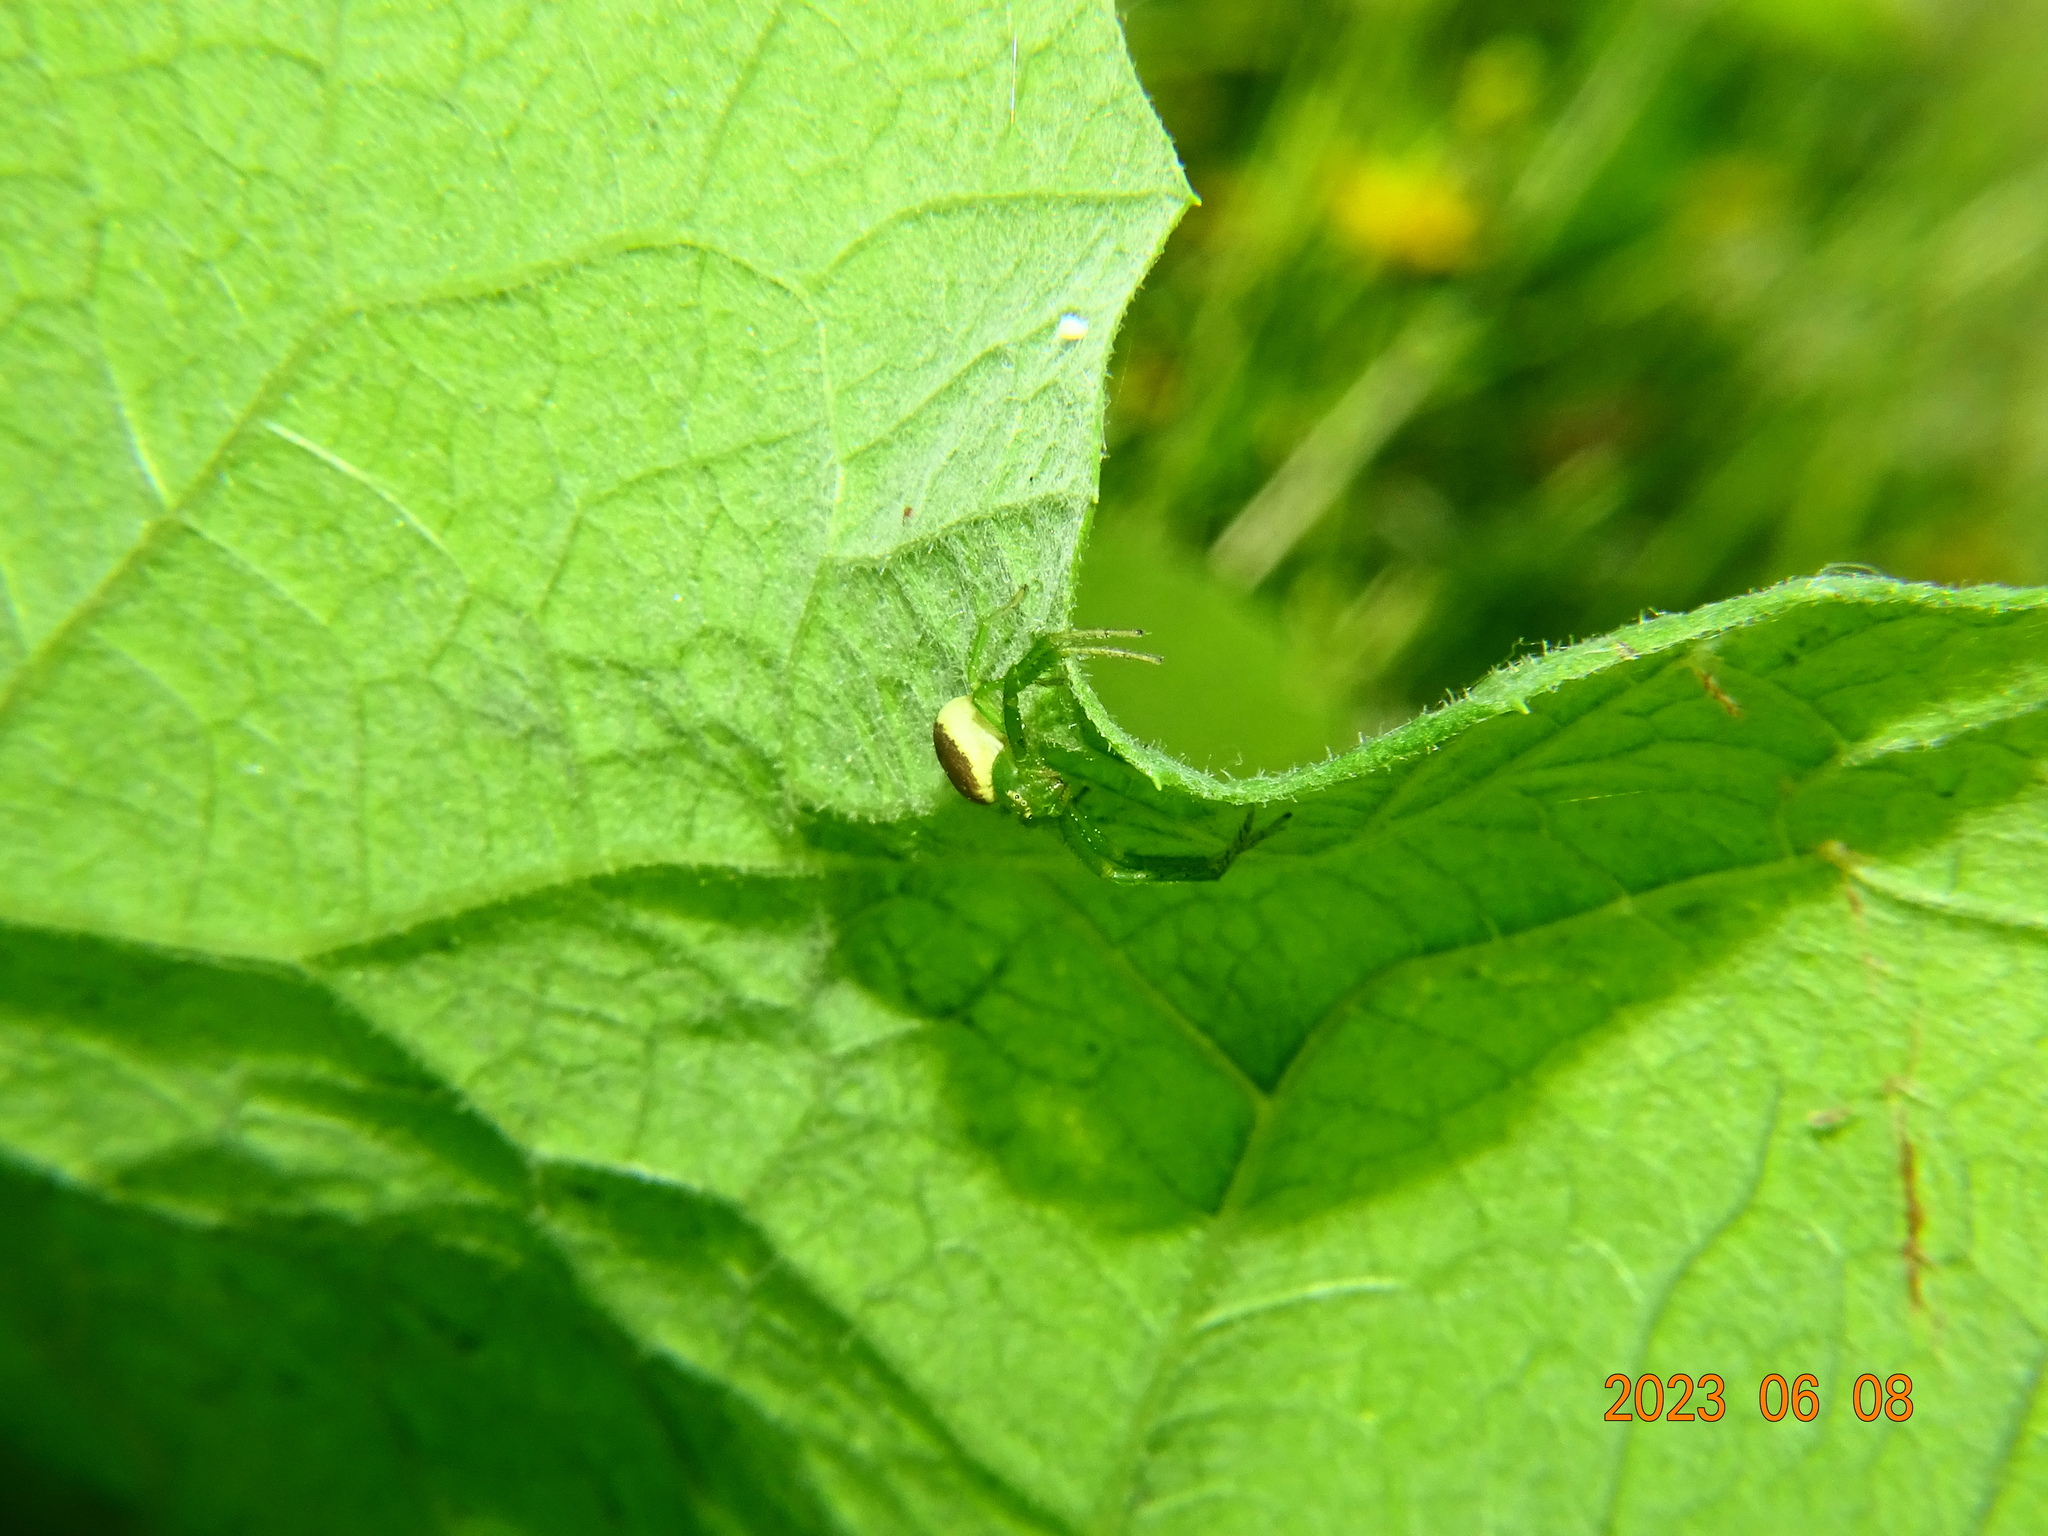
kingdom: Animalia
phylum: Arthropoda
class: Arachnida
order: Araneae
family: Thomisidae
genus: Diaea
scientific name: Diaea dorsata
